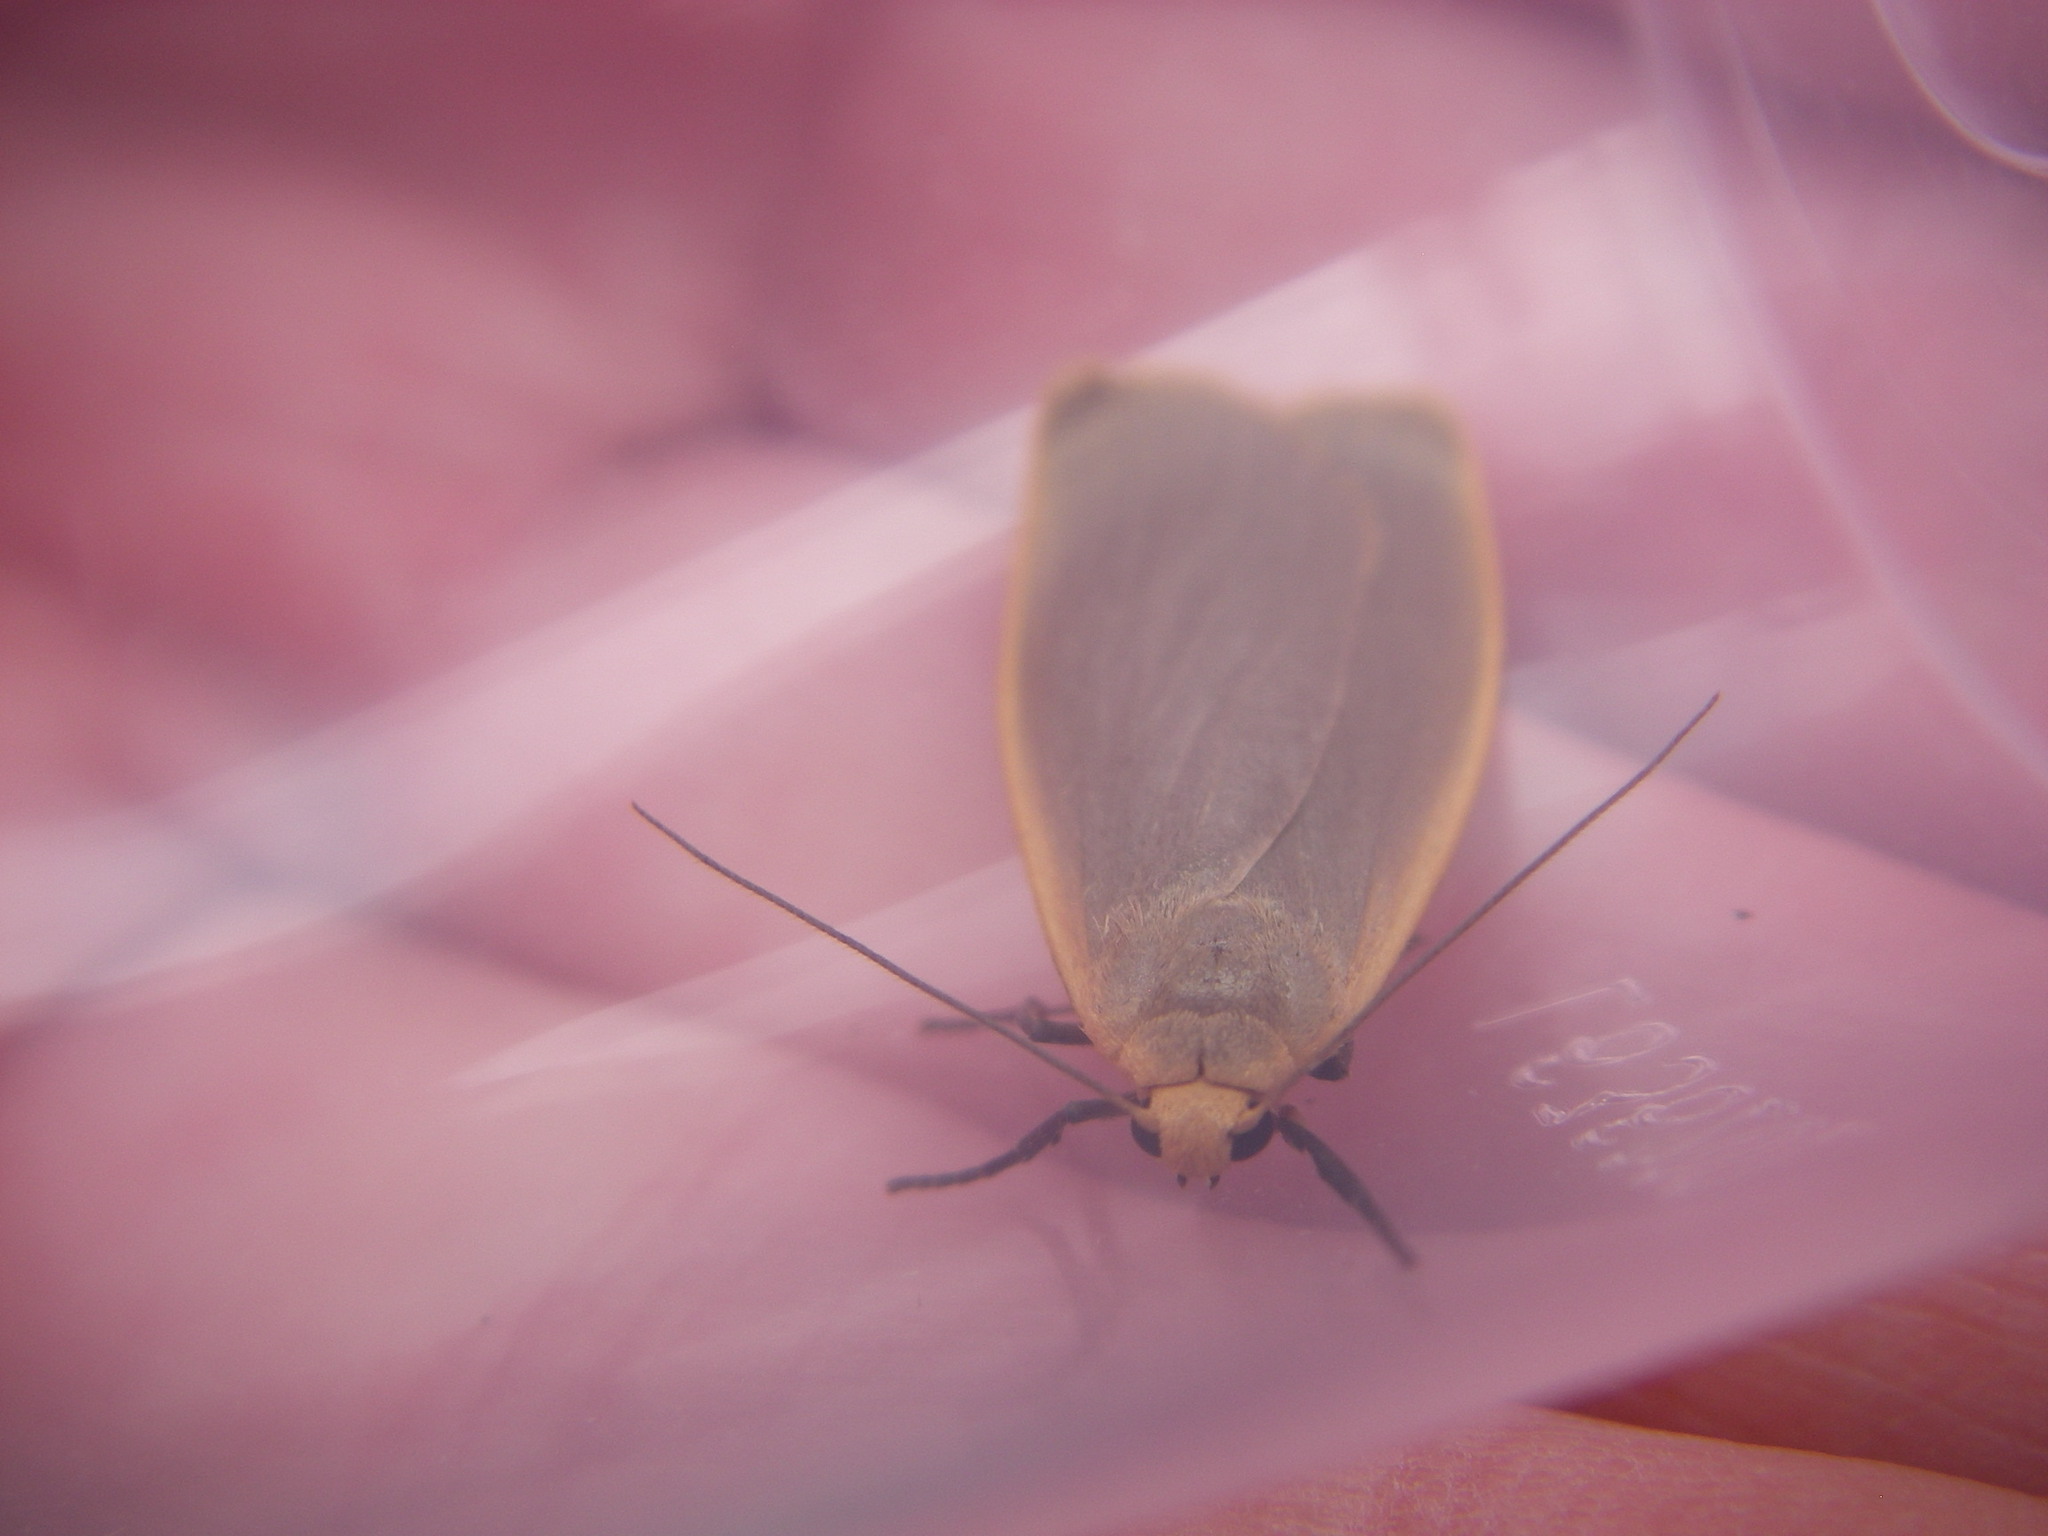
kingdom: Animalia
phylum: Arthropoda
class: Insecta
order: Lepidoptera
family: Erebidae
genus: Collita
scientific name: Collita griseola
